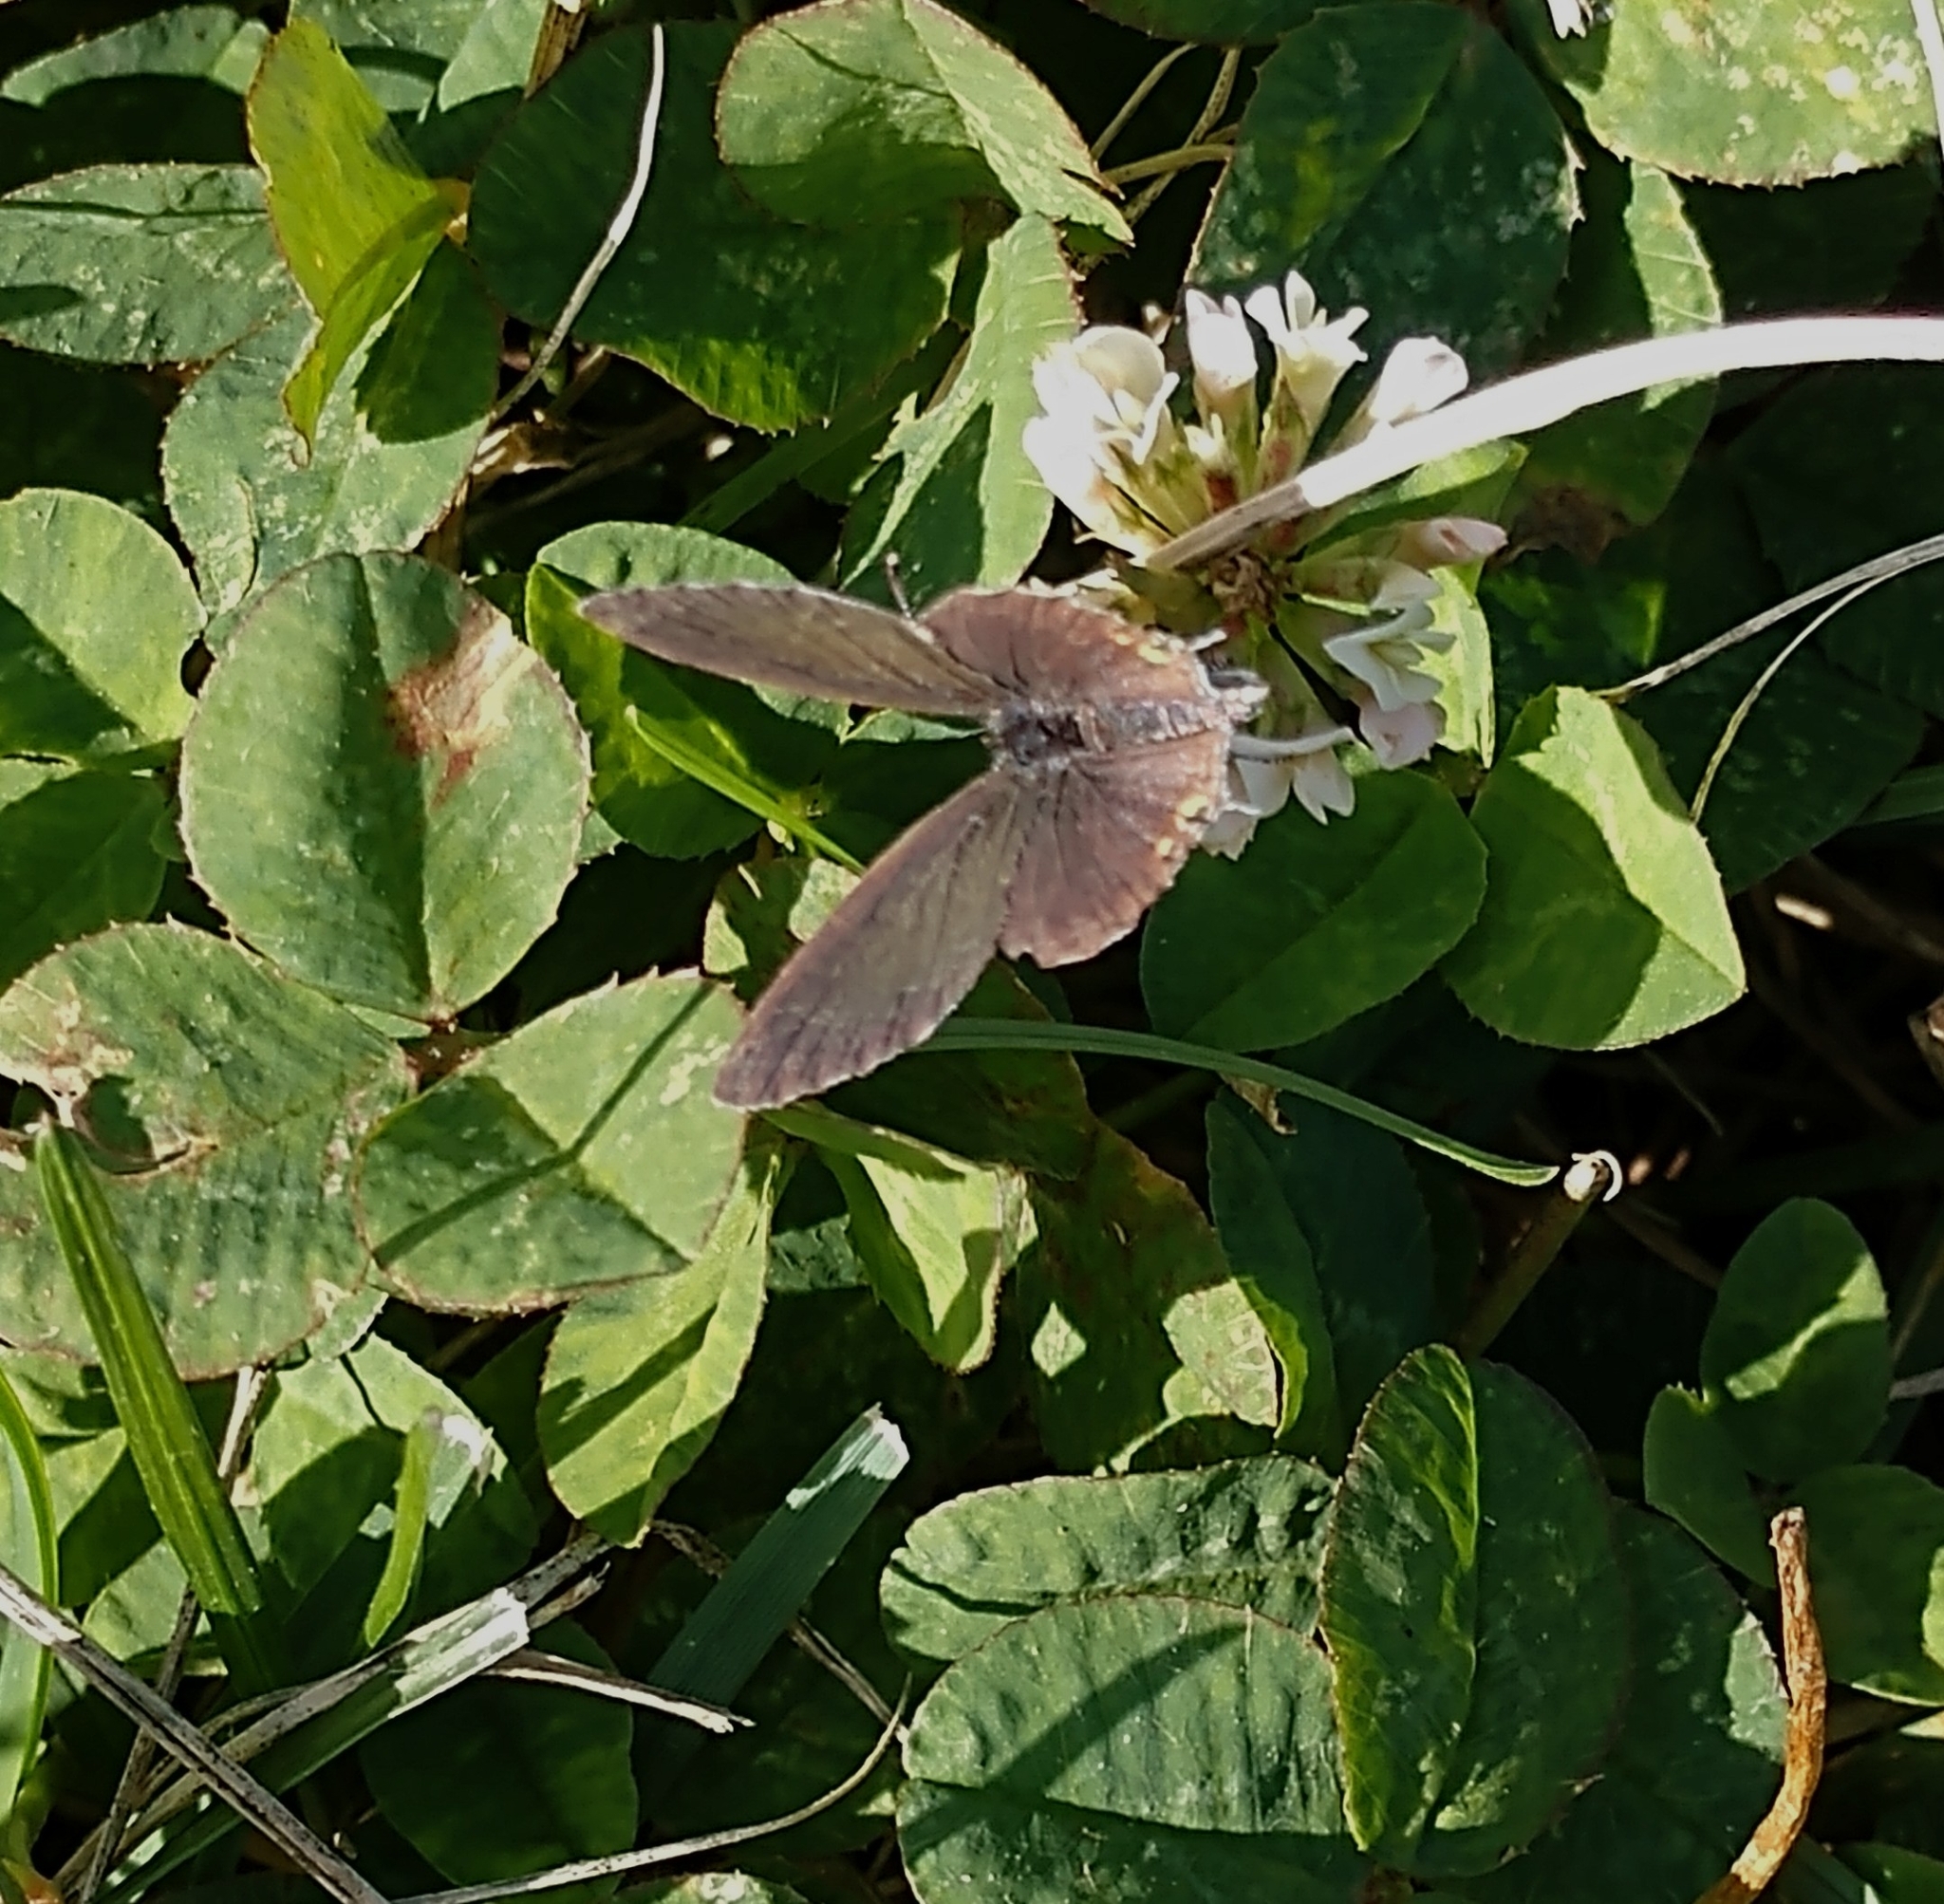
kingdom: Animalia
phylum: Arthropoda
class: Insecta
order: Lepidoptera
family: Lycaenidae
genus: Elkalyce
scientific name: Elkalyce comyntas
